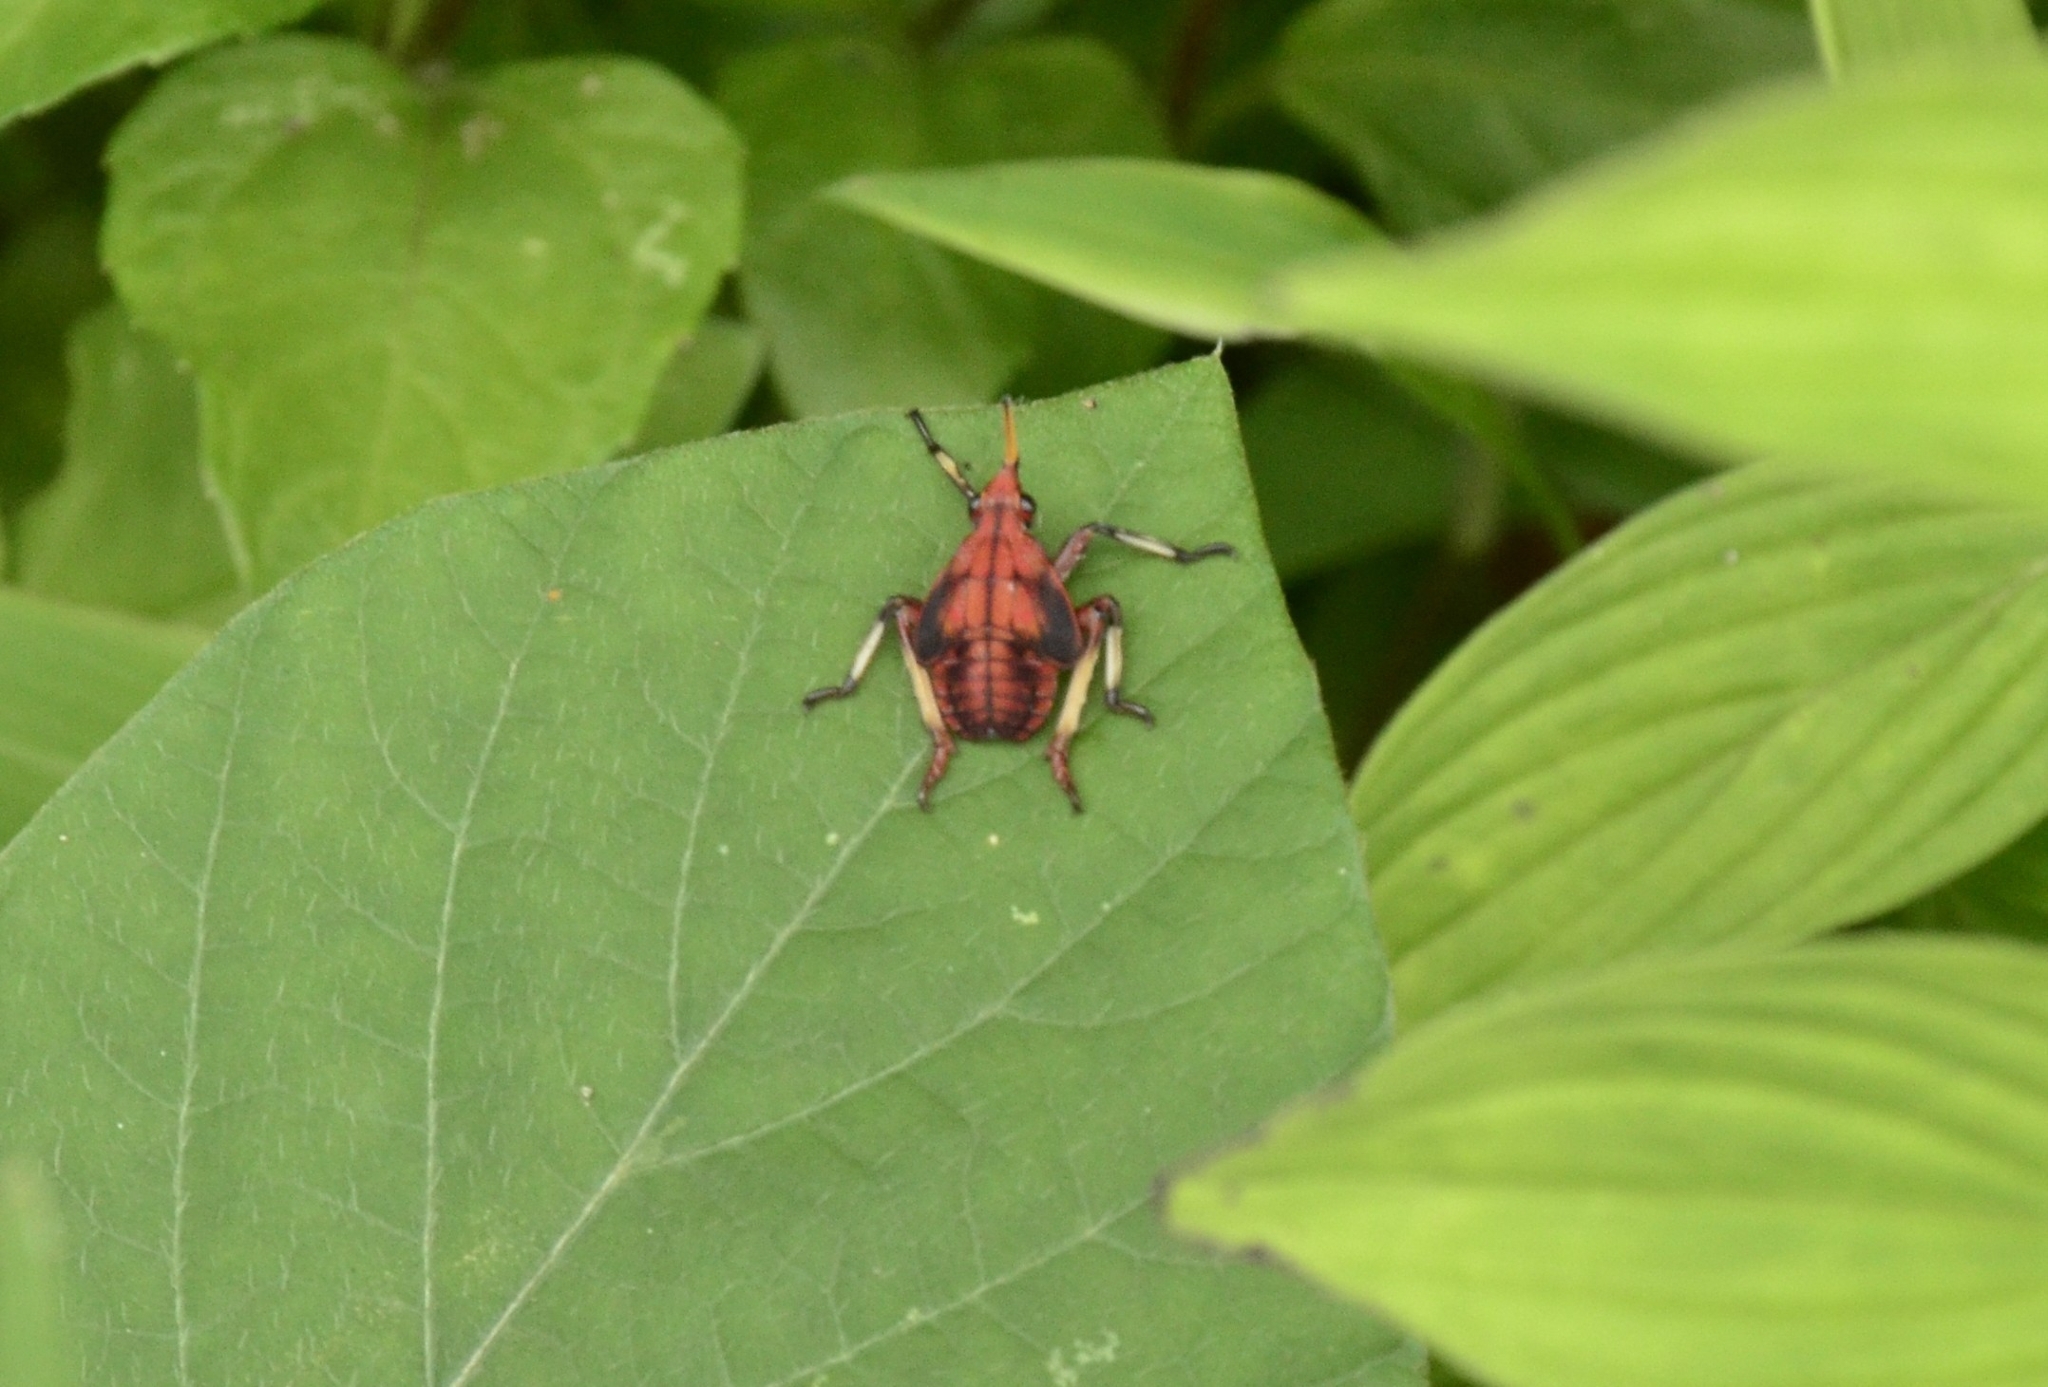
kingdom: Animalia
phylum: Arthropoda
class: Insecta
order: Hemiptera
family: Fulgoridae
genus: Kalidasa
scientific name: Kalidasa lanata
